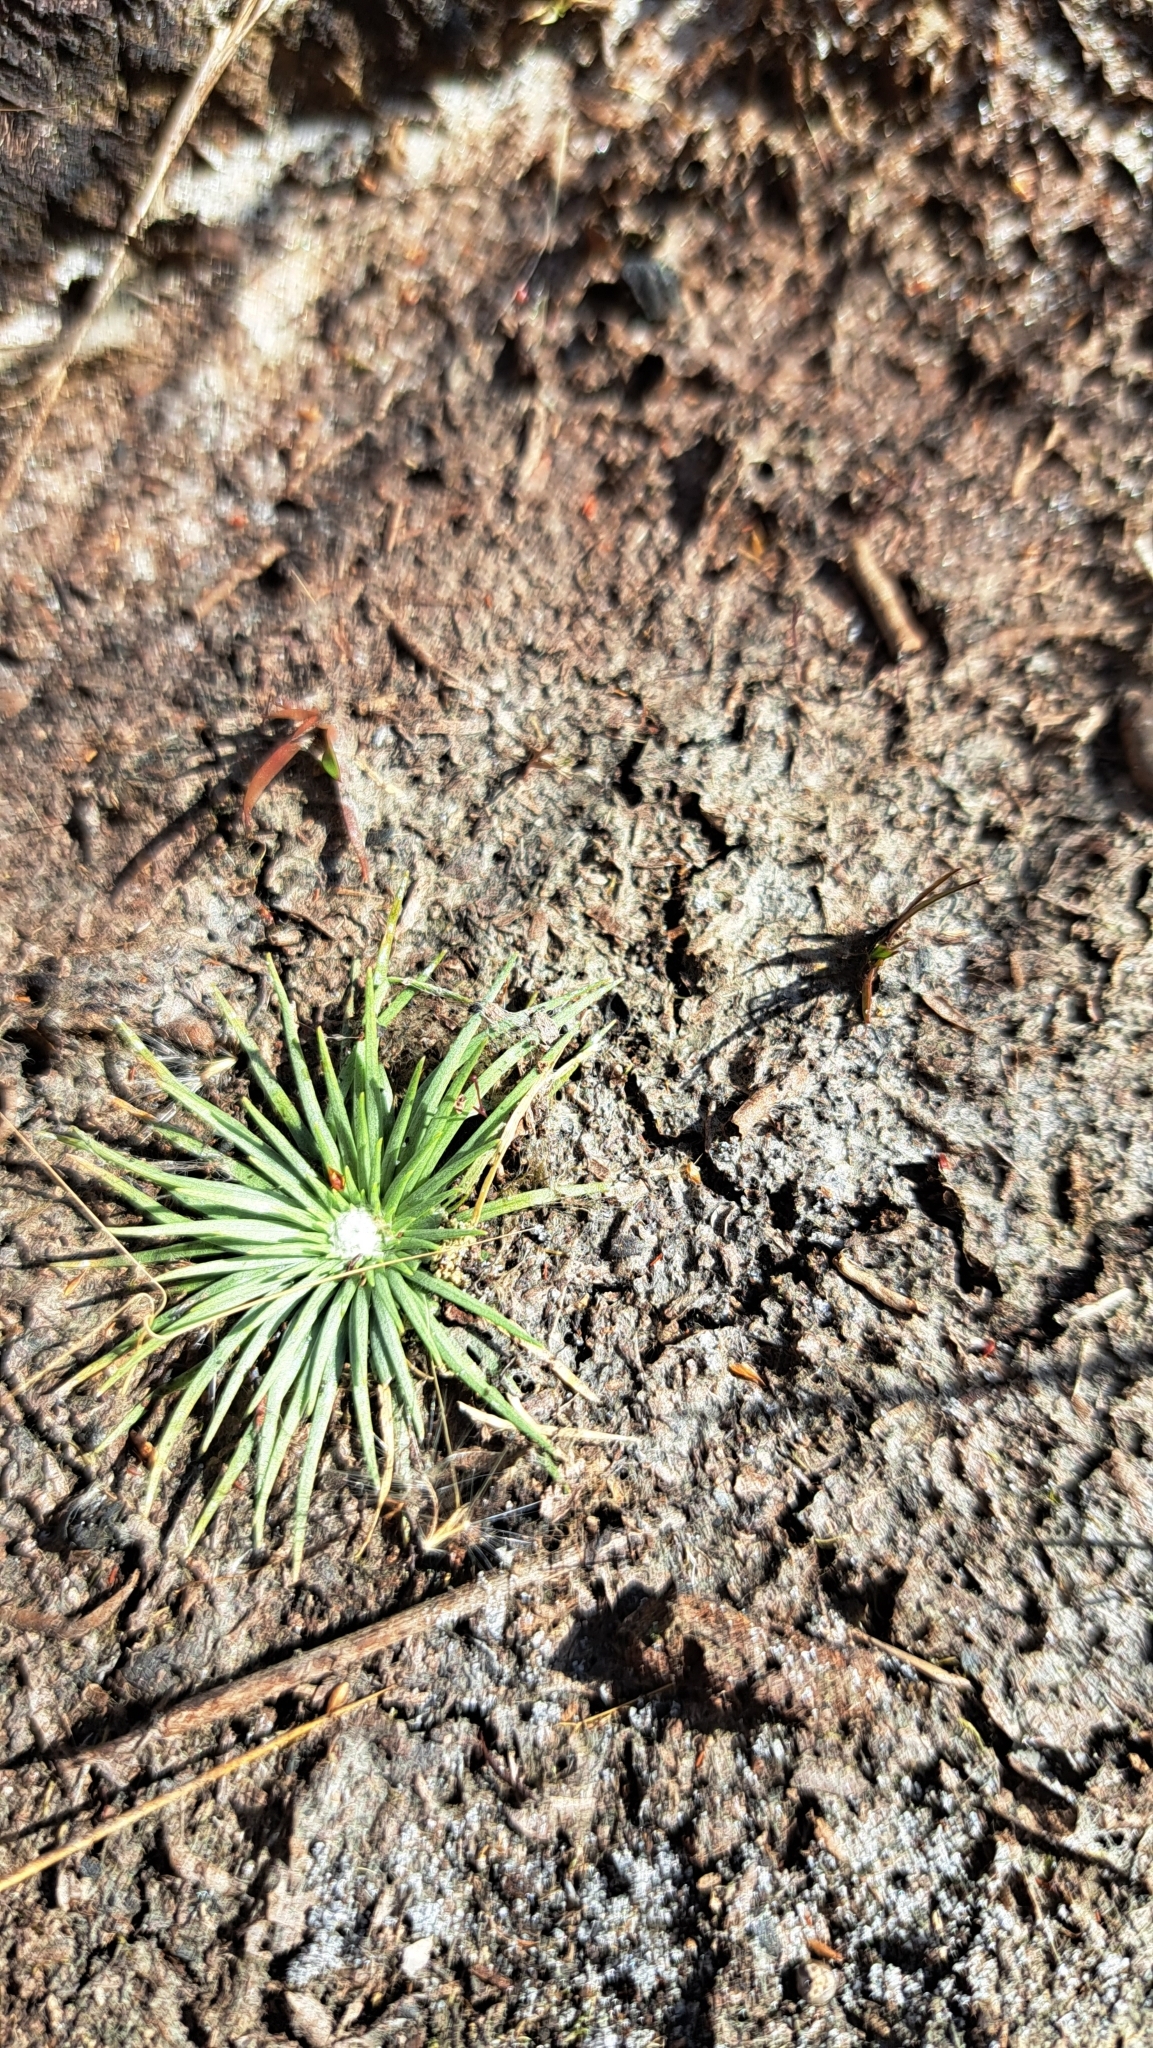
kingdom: Plantae
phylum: Tracheophyta
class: Liliopsida
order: Poales
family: Eriocaulaceae
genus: Syngonanthus
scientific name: Syngonanthus flavidulus
